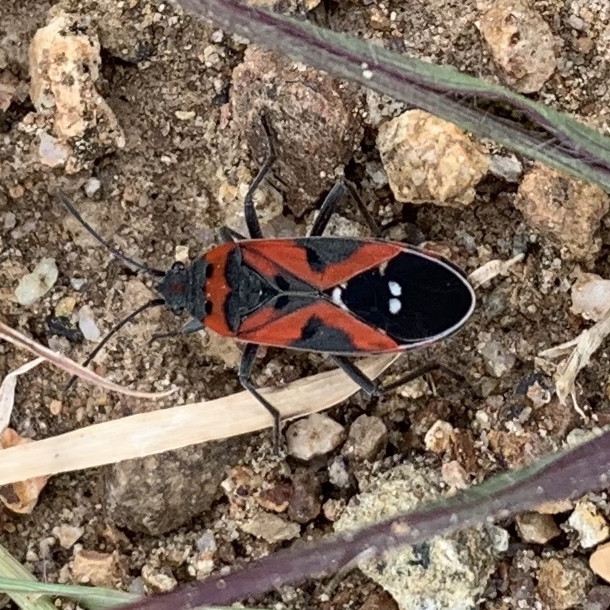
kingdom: Animalia
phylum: Arthropoda
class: Insecta
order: Hemiptera
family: Lygaeidae
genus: Lygaeus
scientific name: Lygaeus reclivatus
